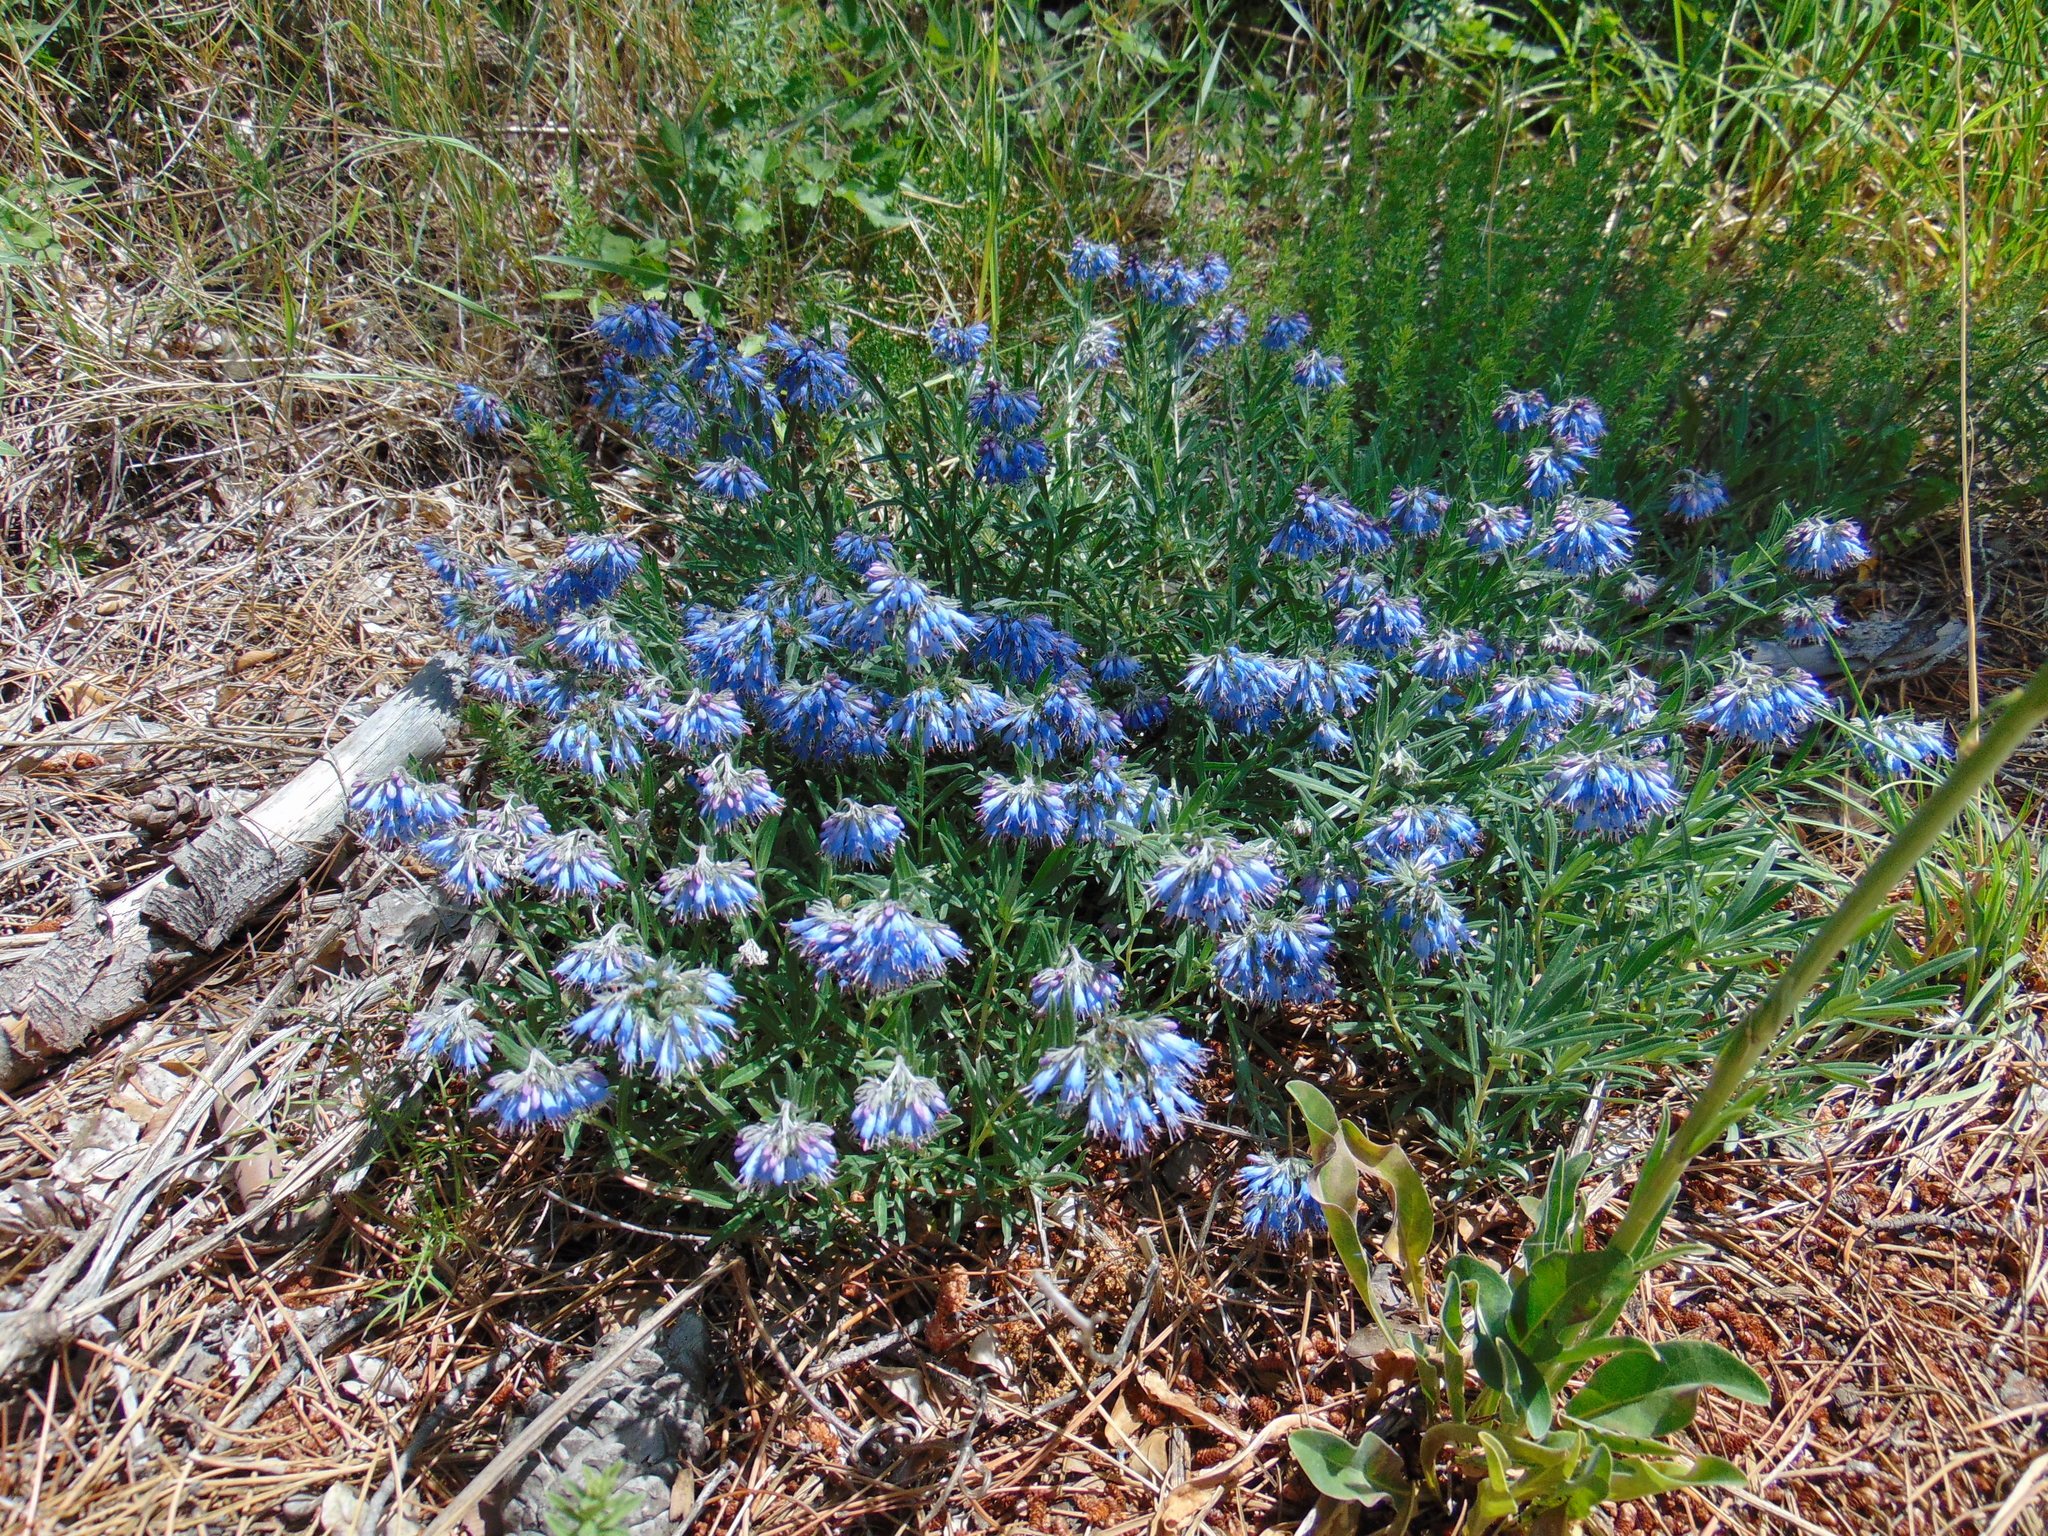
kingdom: Plantae
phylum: Tracheophyta
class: Magnoliopsida
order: Boraginales
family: Boraginaceae
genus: Moltkia
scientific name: Moltkia petraea
